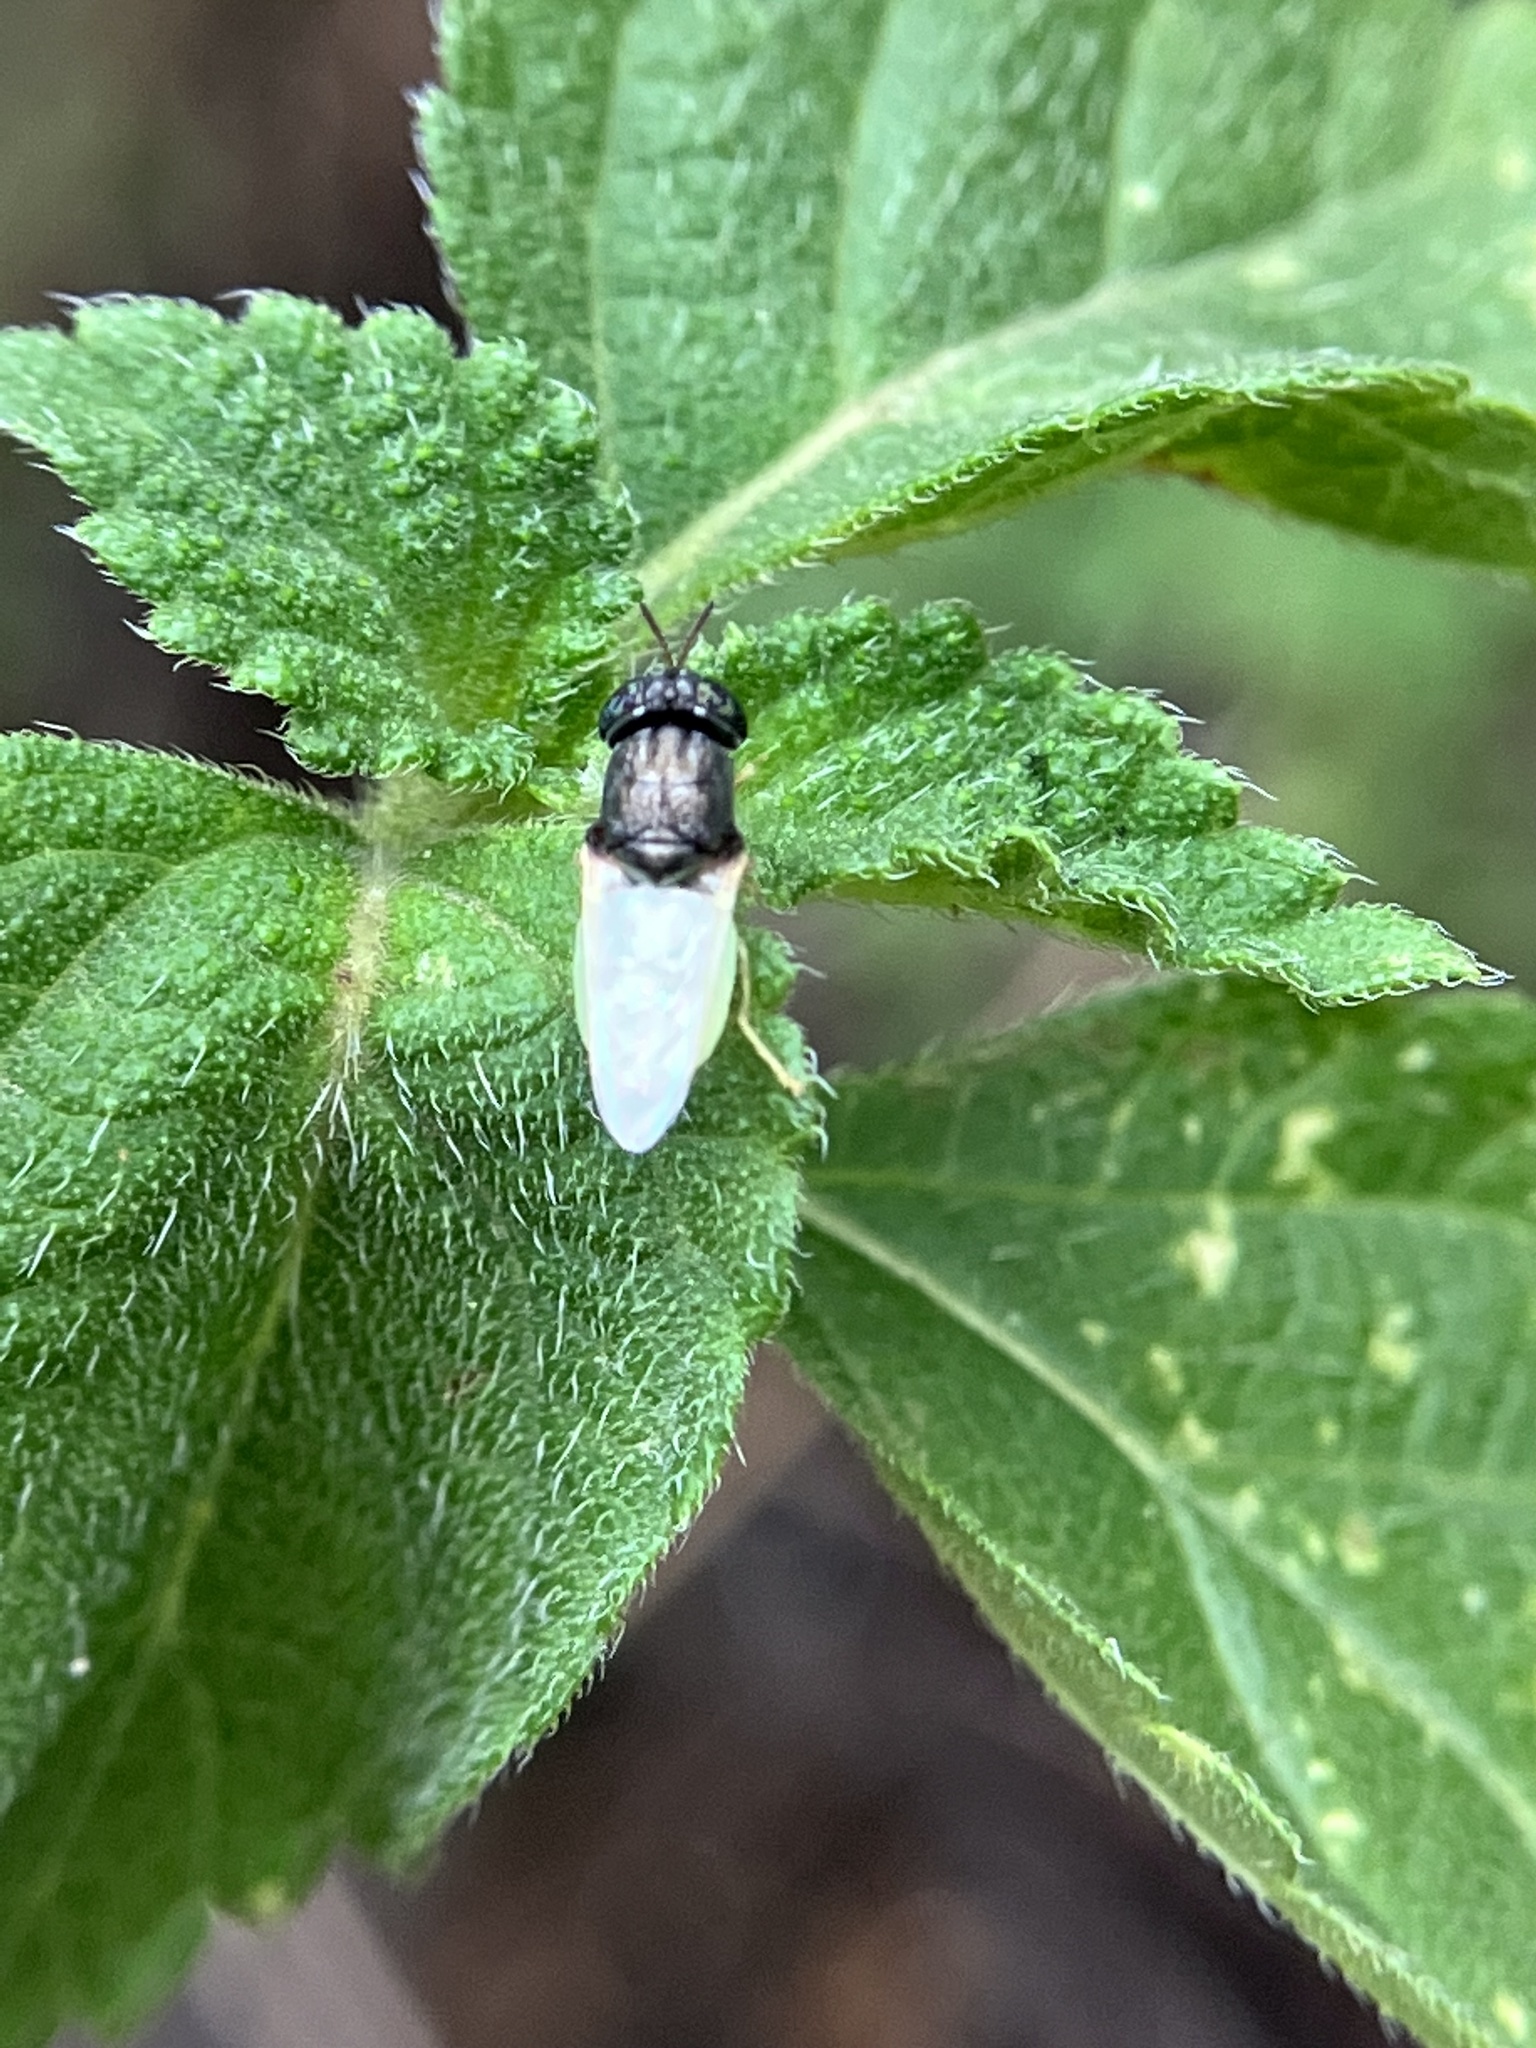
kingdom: Animalia
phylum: Arthropoda
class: Insecta
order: Diptera
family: Stratiomyidae
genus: Oplodontha
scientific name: Oplodontha rubrithorax
